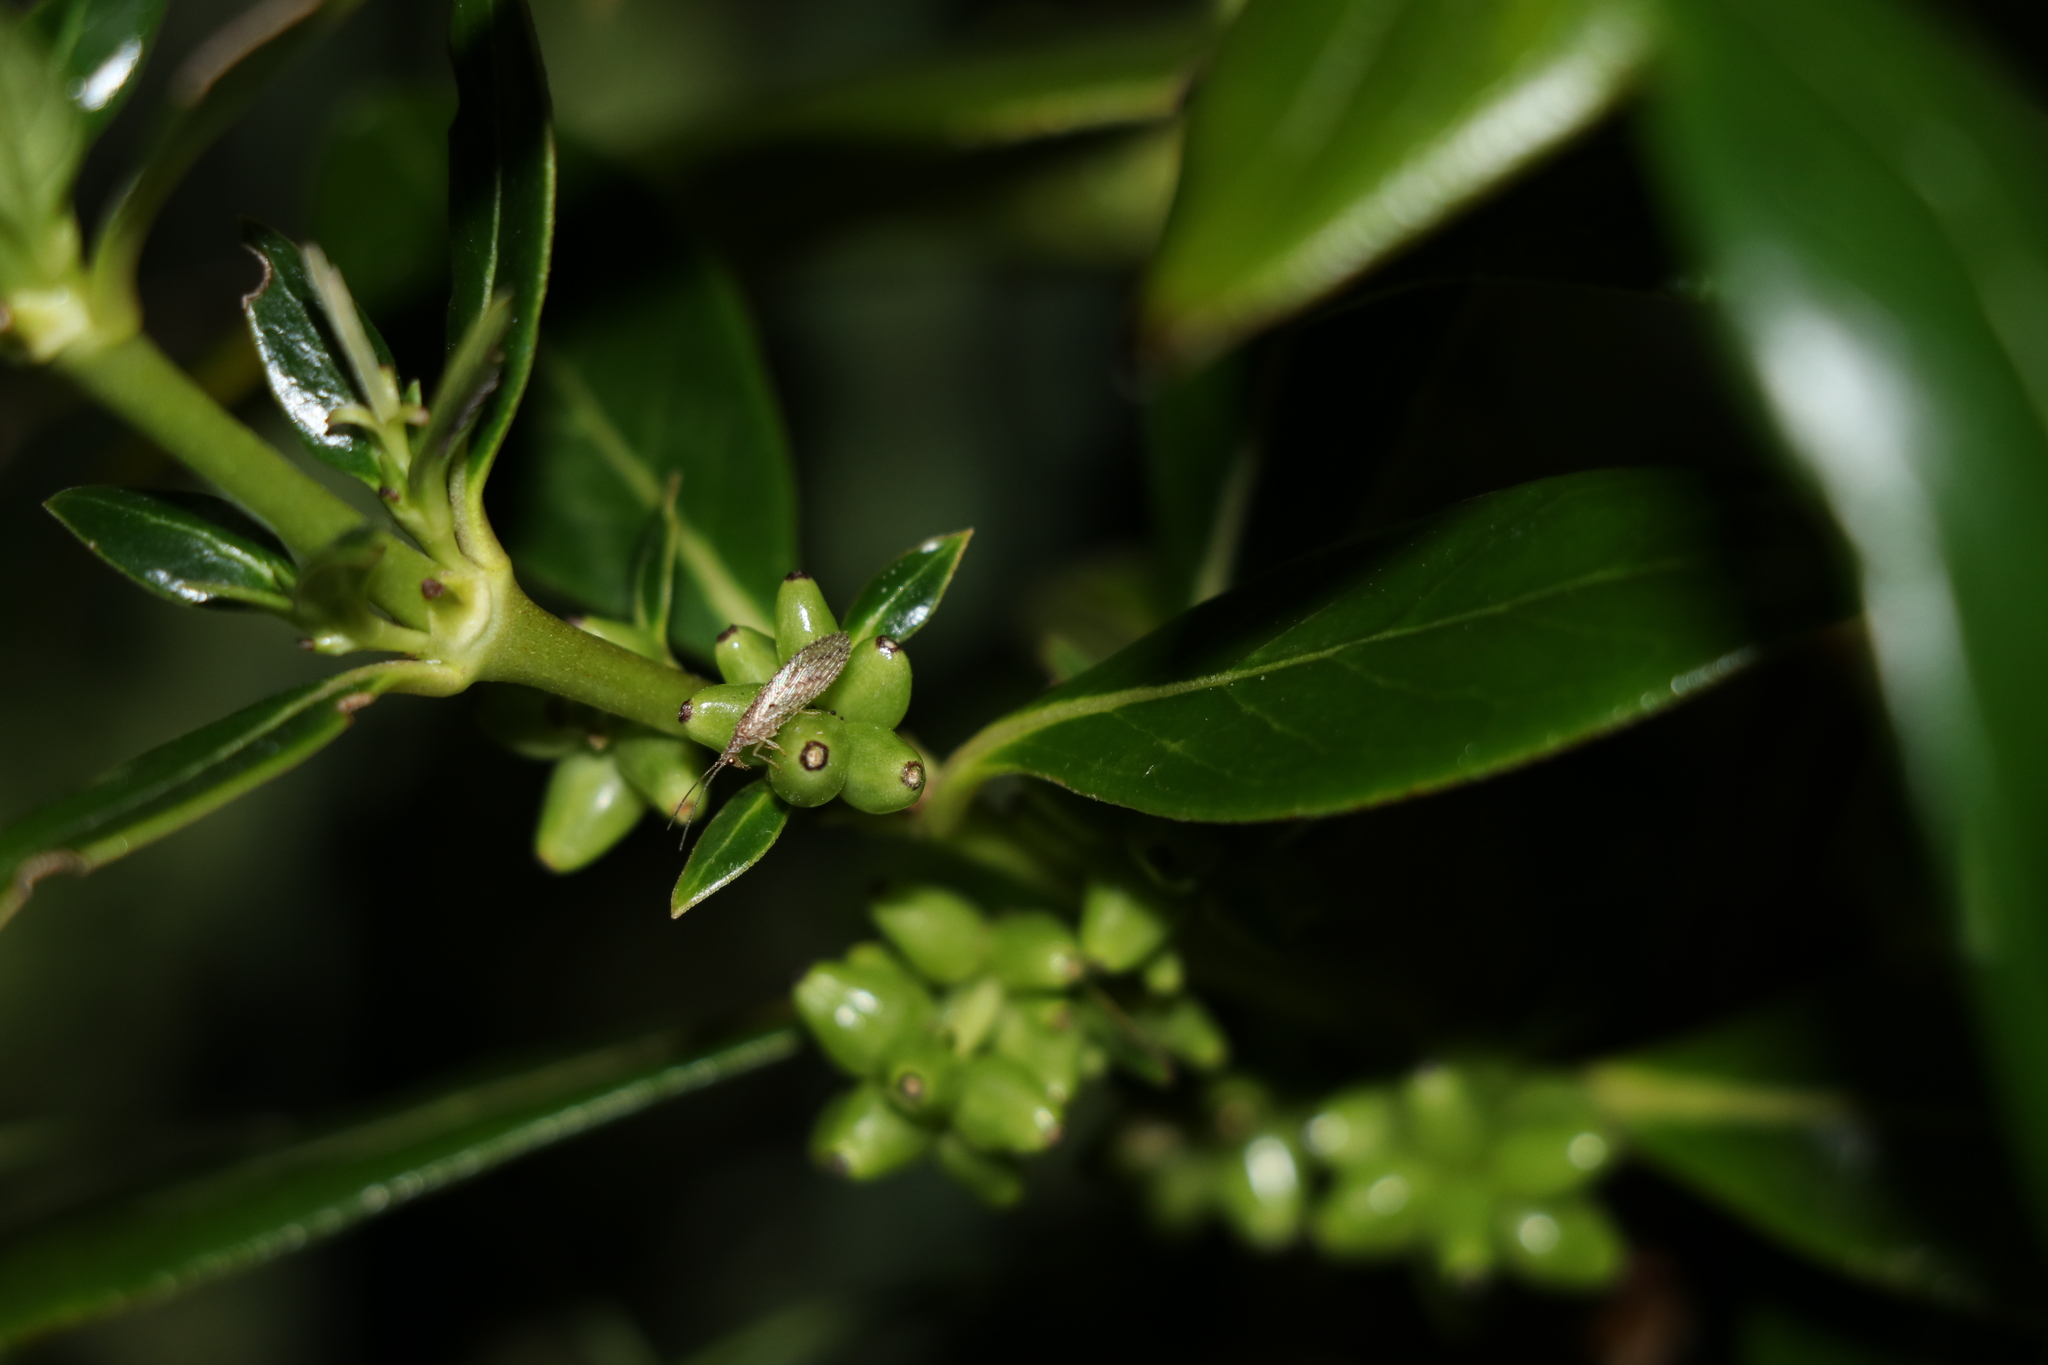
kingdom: Animalia
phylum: Arthropoda
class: Insecta
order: Neuroptera
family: Hemerobiidae
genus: Micromus
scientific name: Micromus tasmaniae
